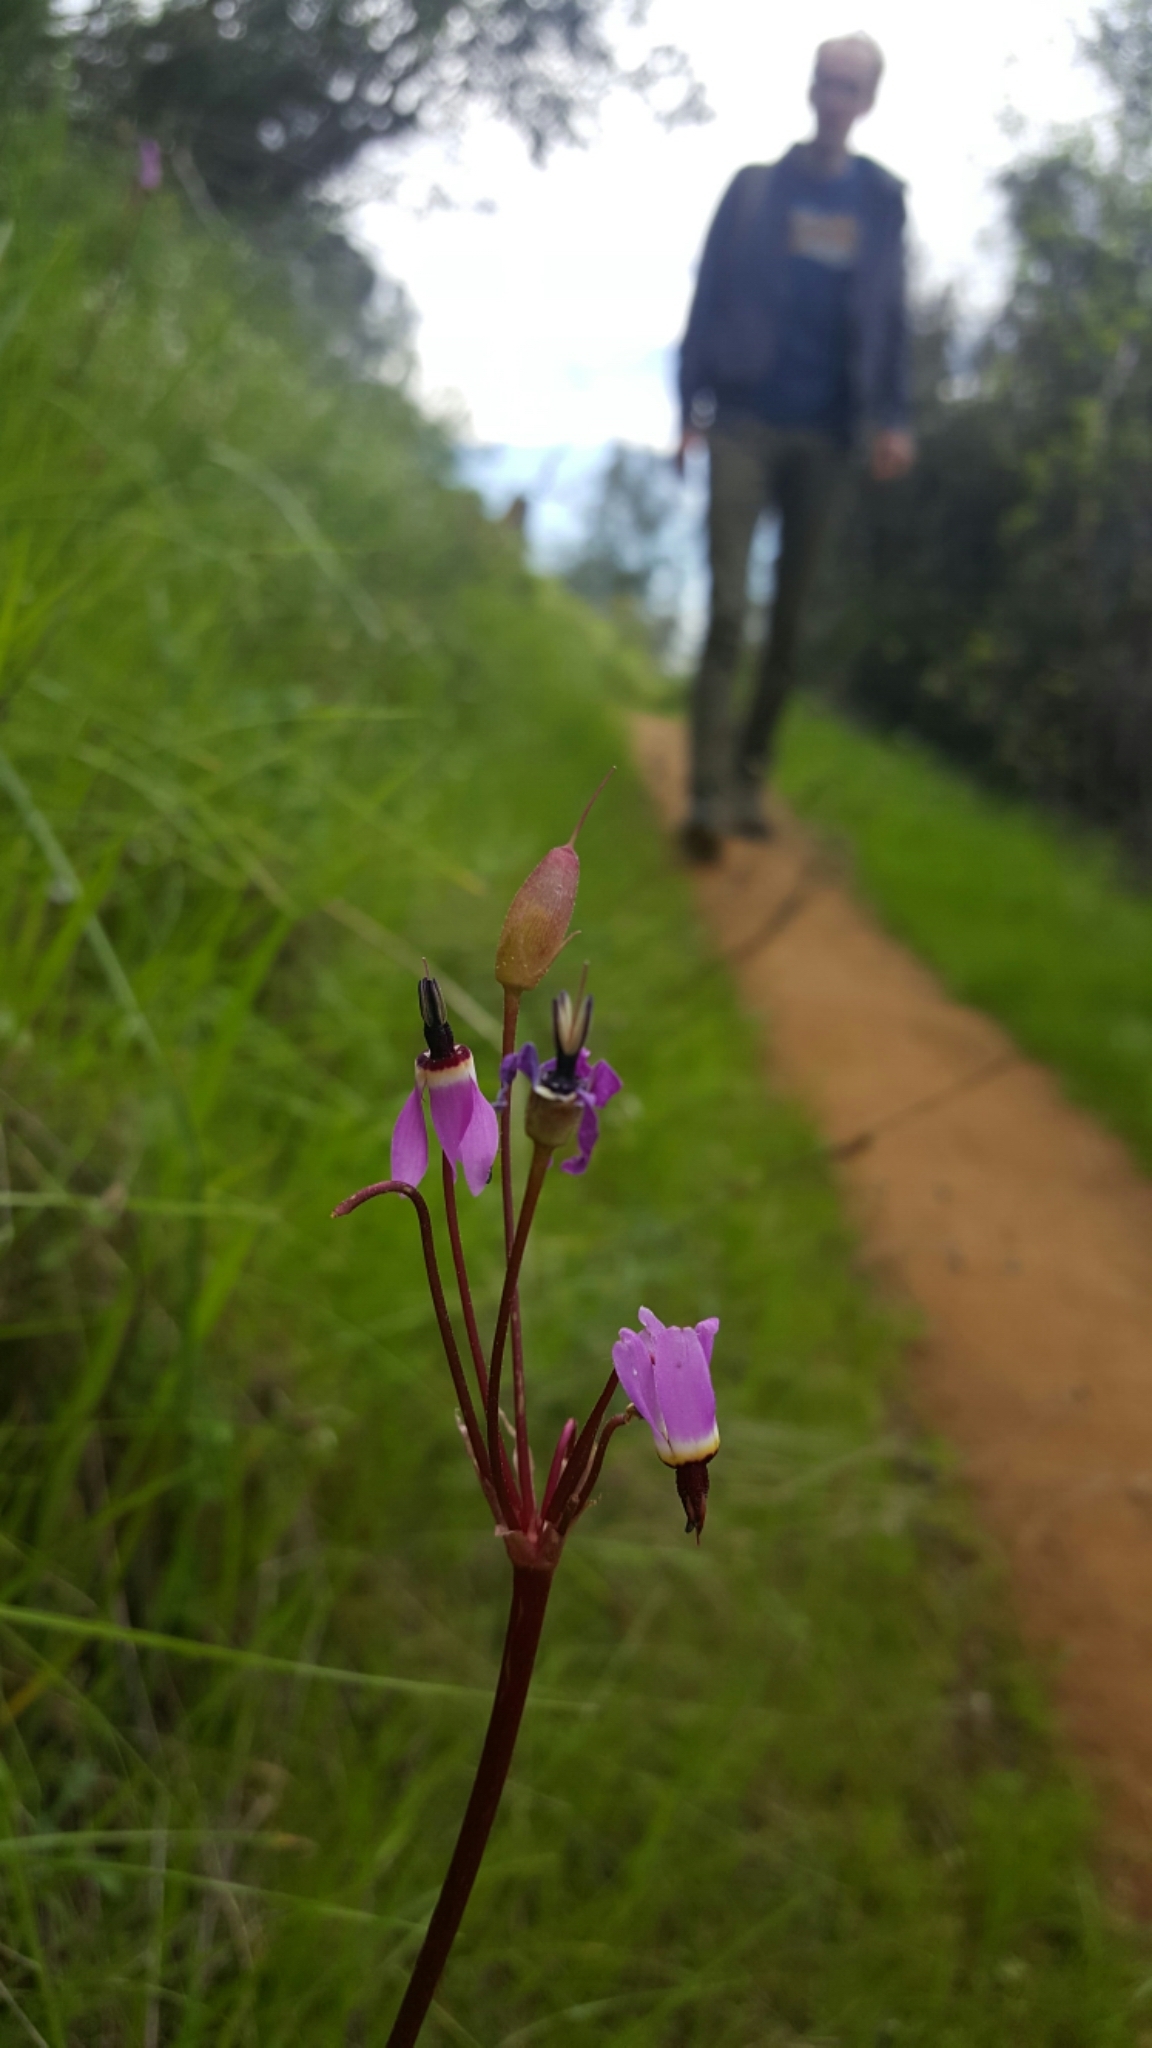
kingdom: Plantae
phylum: Tracheophyta
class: Magnoliopsida
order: Ericales
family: Primulaceae
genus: Dodecatheon
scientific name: Dodecatheon hendersonii
